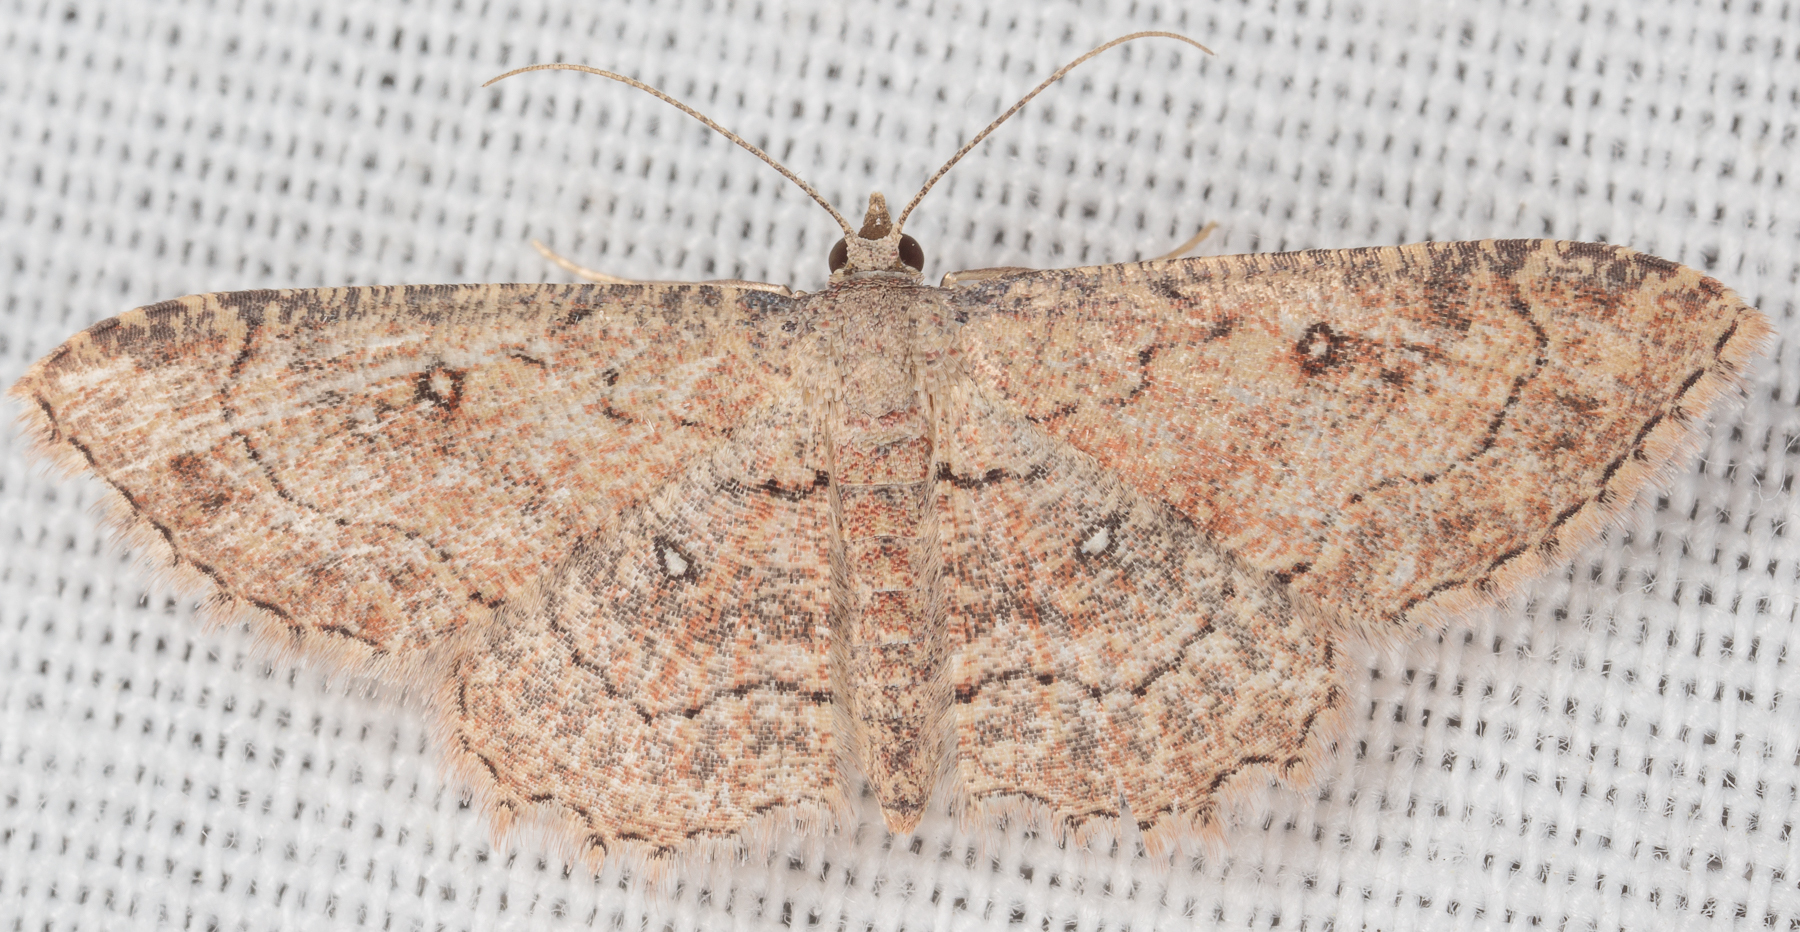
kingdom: Animalia
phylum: Arthropoda
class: Insecta
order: Lepidoptera
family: Geometridae
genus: Cyclophora
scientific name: Cyclophora nanaria
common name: Cankerworm
